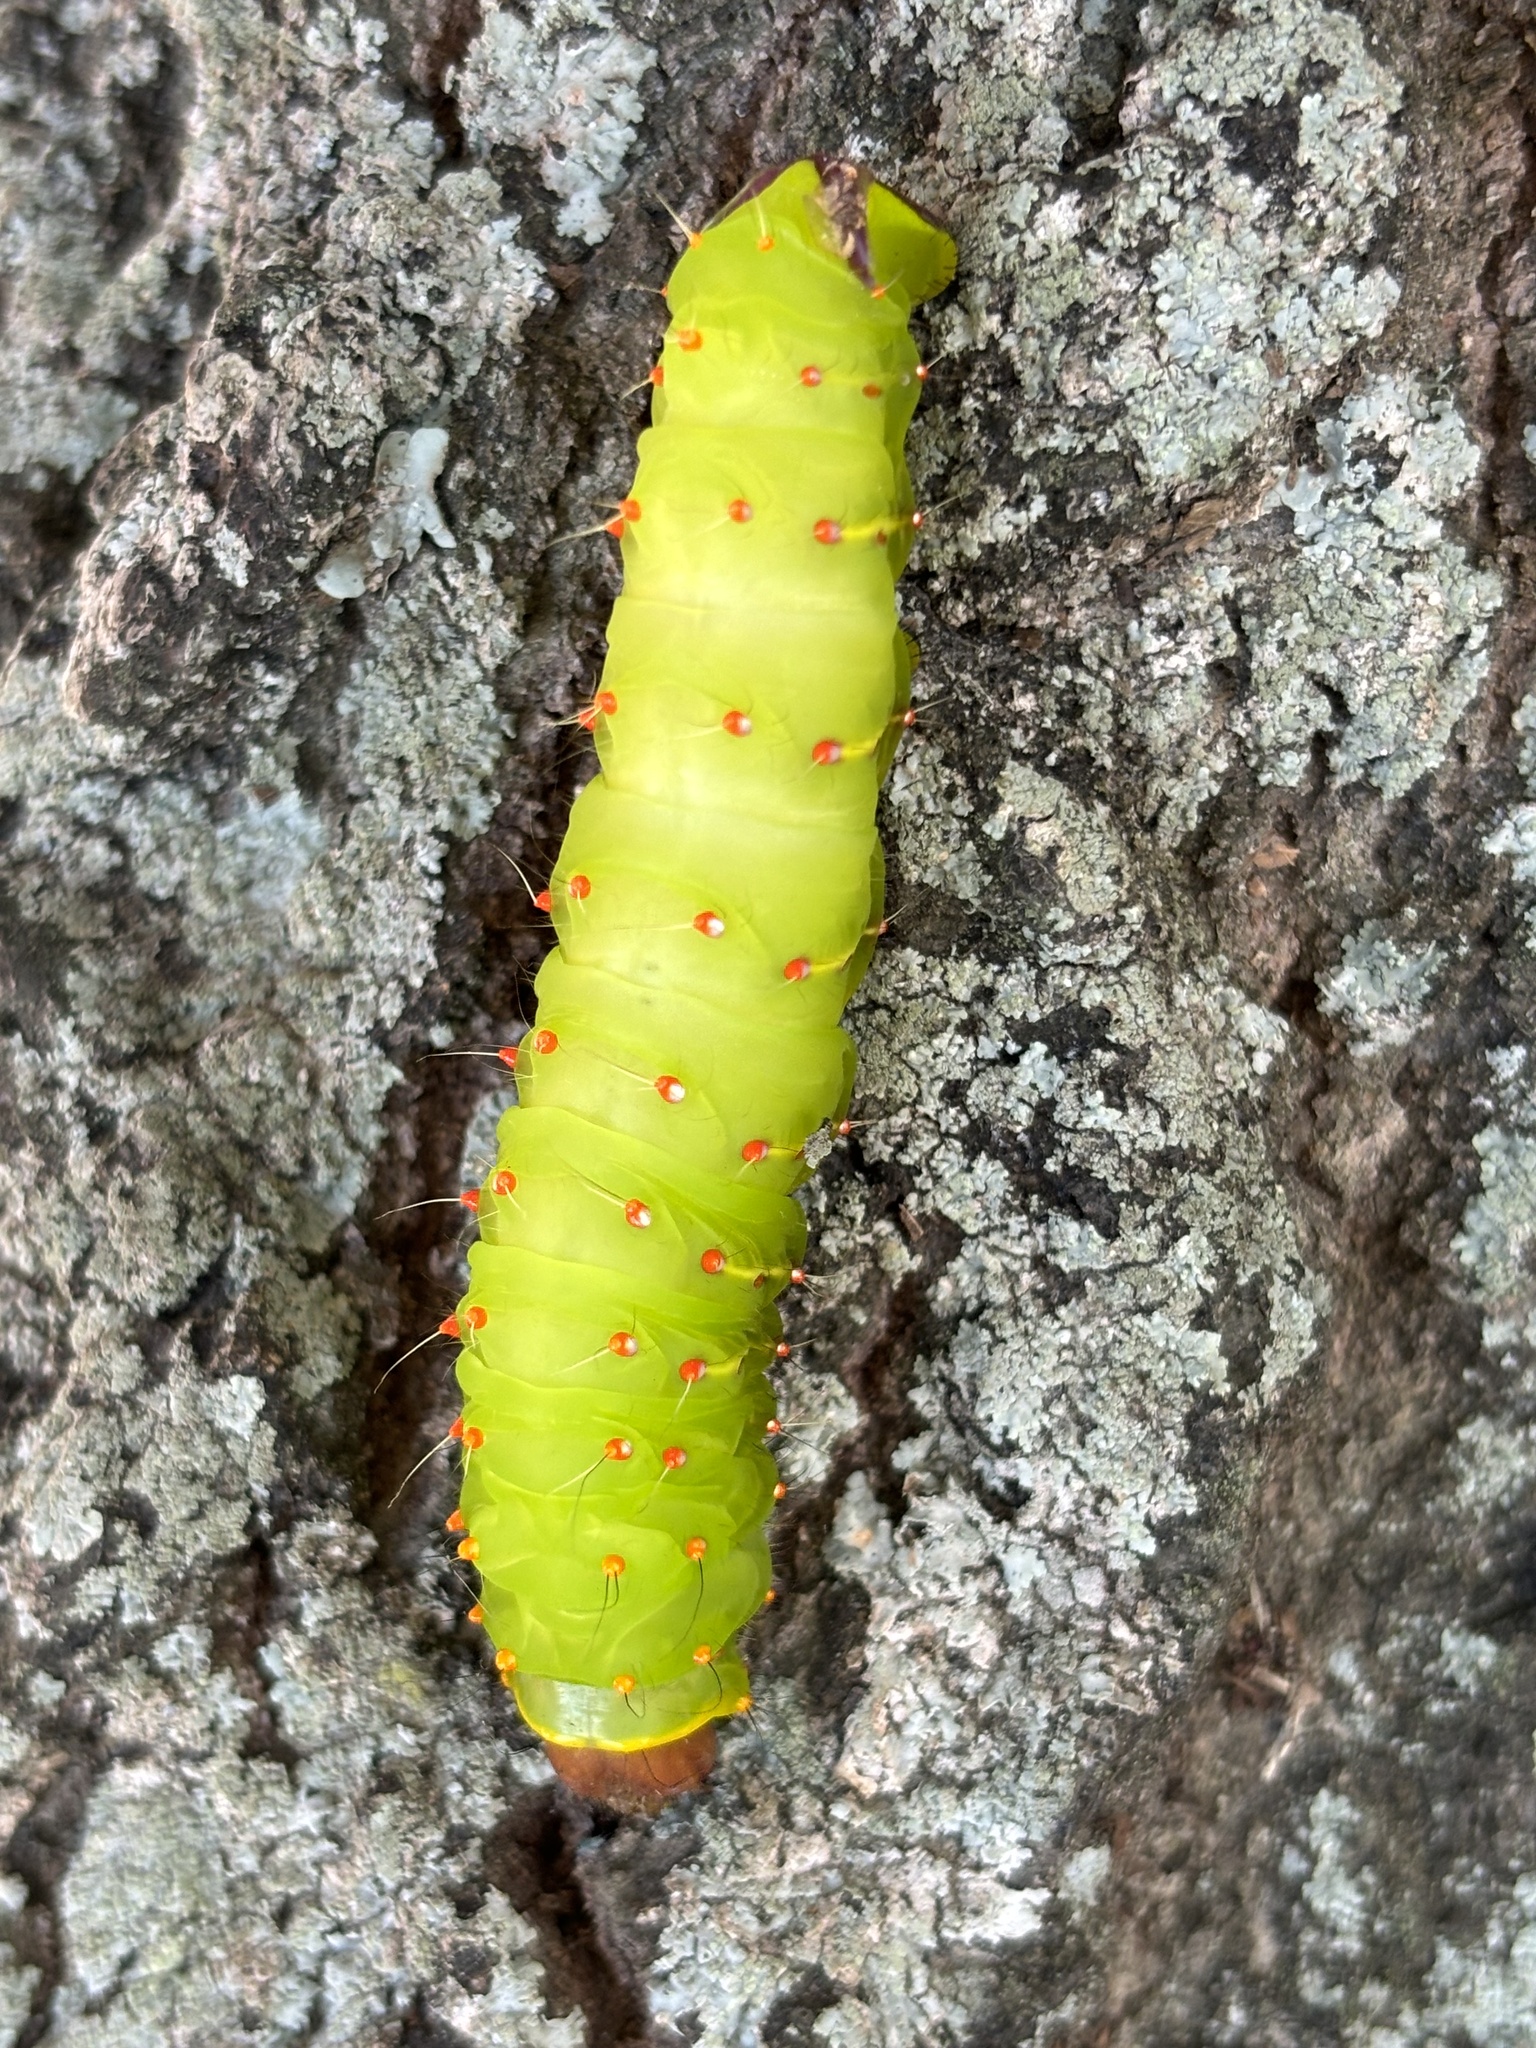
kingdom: Animalia
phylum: Arthropoda
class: Insecta
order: Lepidoptera
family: Saturniidae
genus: Antheraea
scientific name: Antheraea polyphemus
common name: Polyphemus moth
